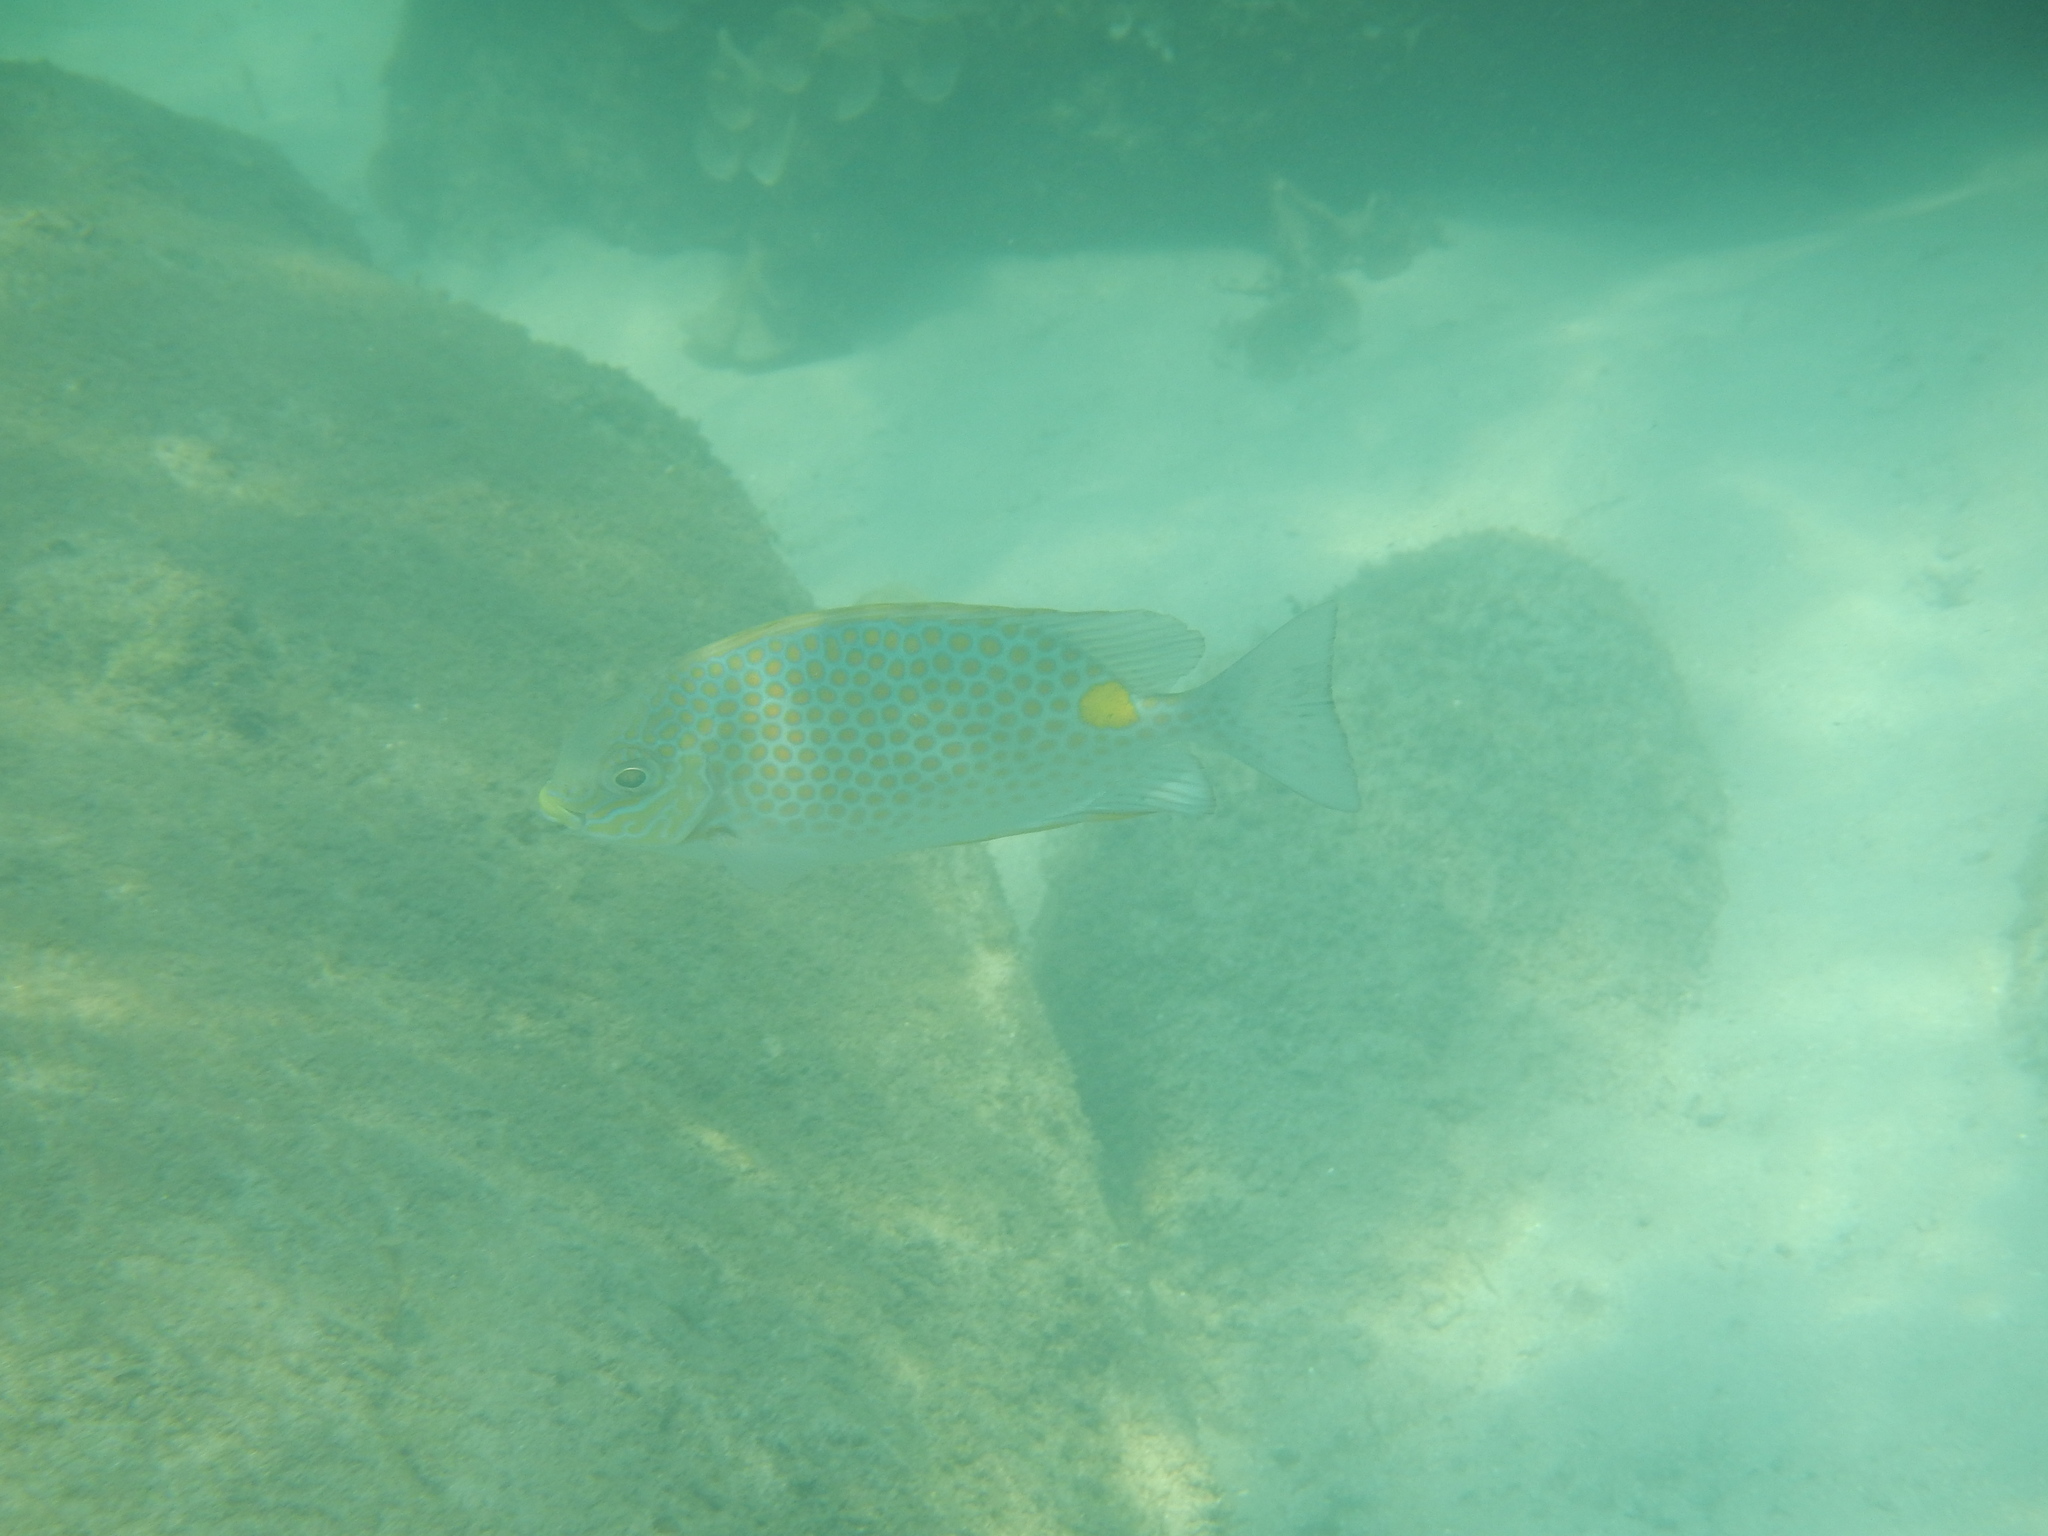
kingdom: Animalia
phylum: Chordata
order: Perciformes
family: Siganidae
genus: Siganus
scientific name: Siganus guttatus
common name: Golden rabbitfish
